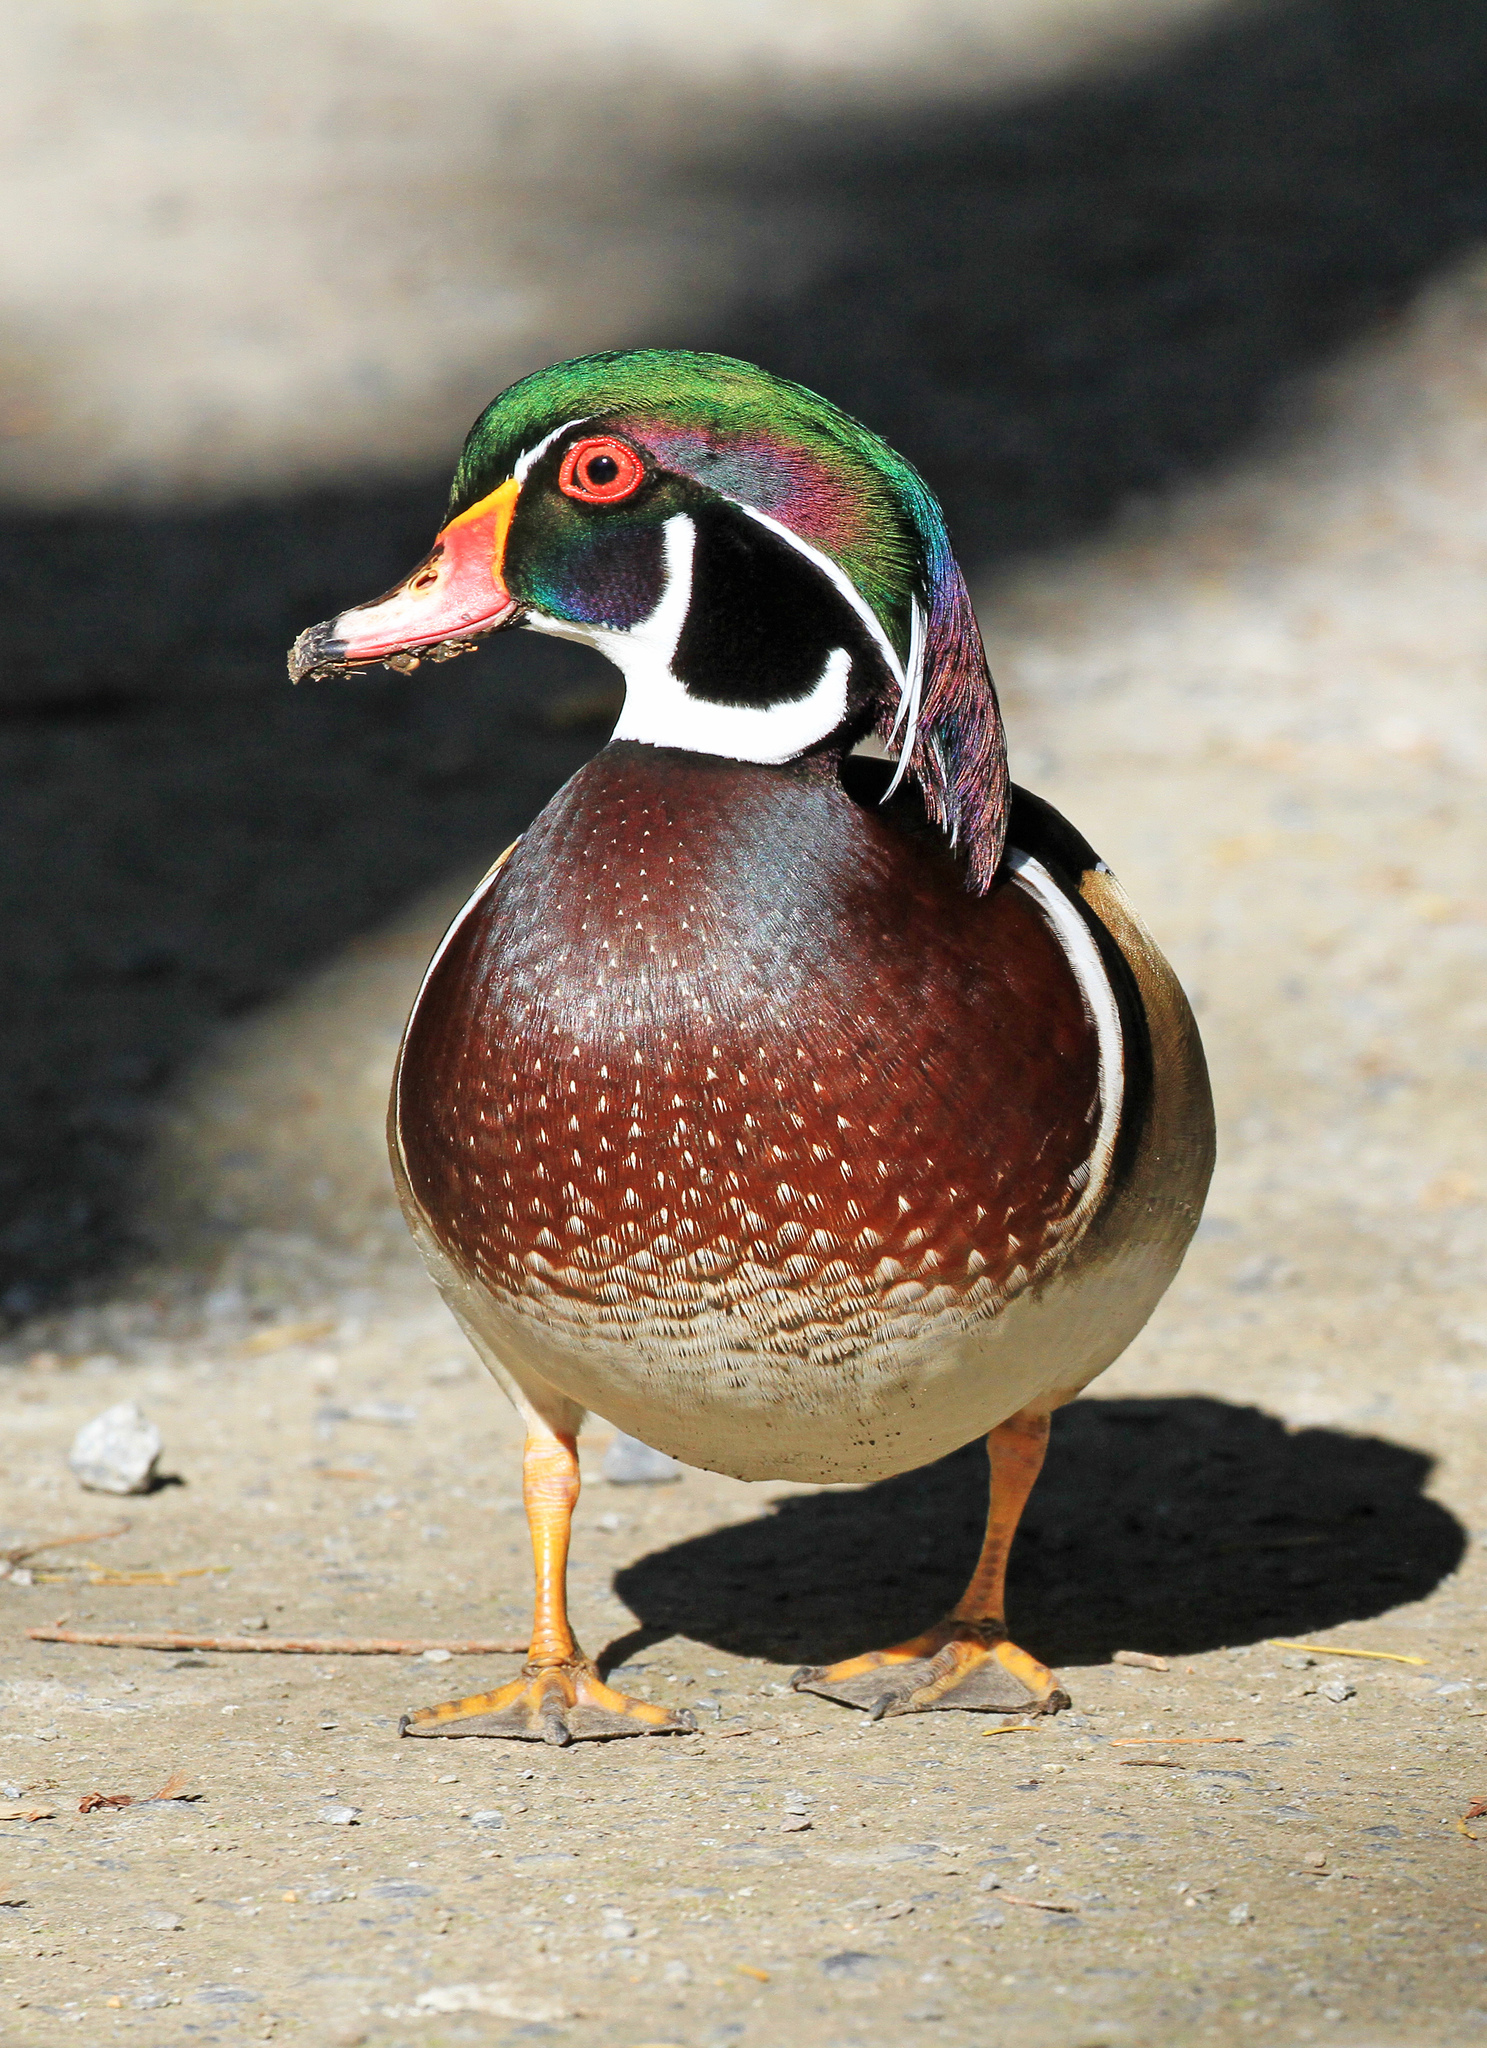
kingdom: Animalia
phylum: Chordata
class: Aves
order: Anseriformes
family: Anatidae
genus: Aix
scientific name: Aix sponsa
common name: Wood duck
